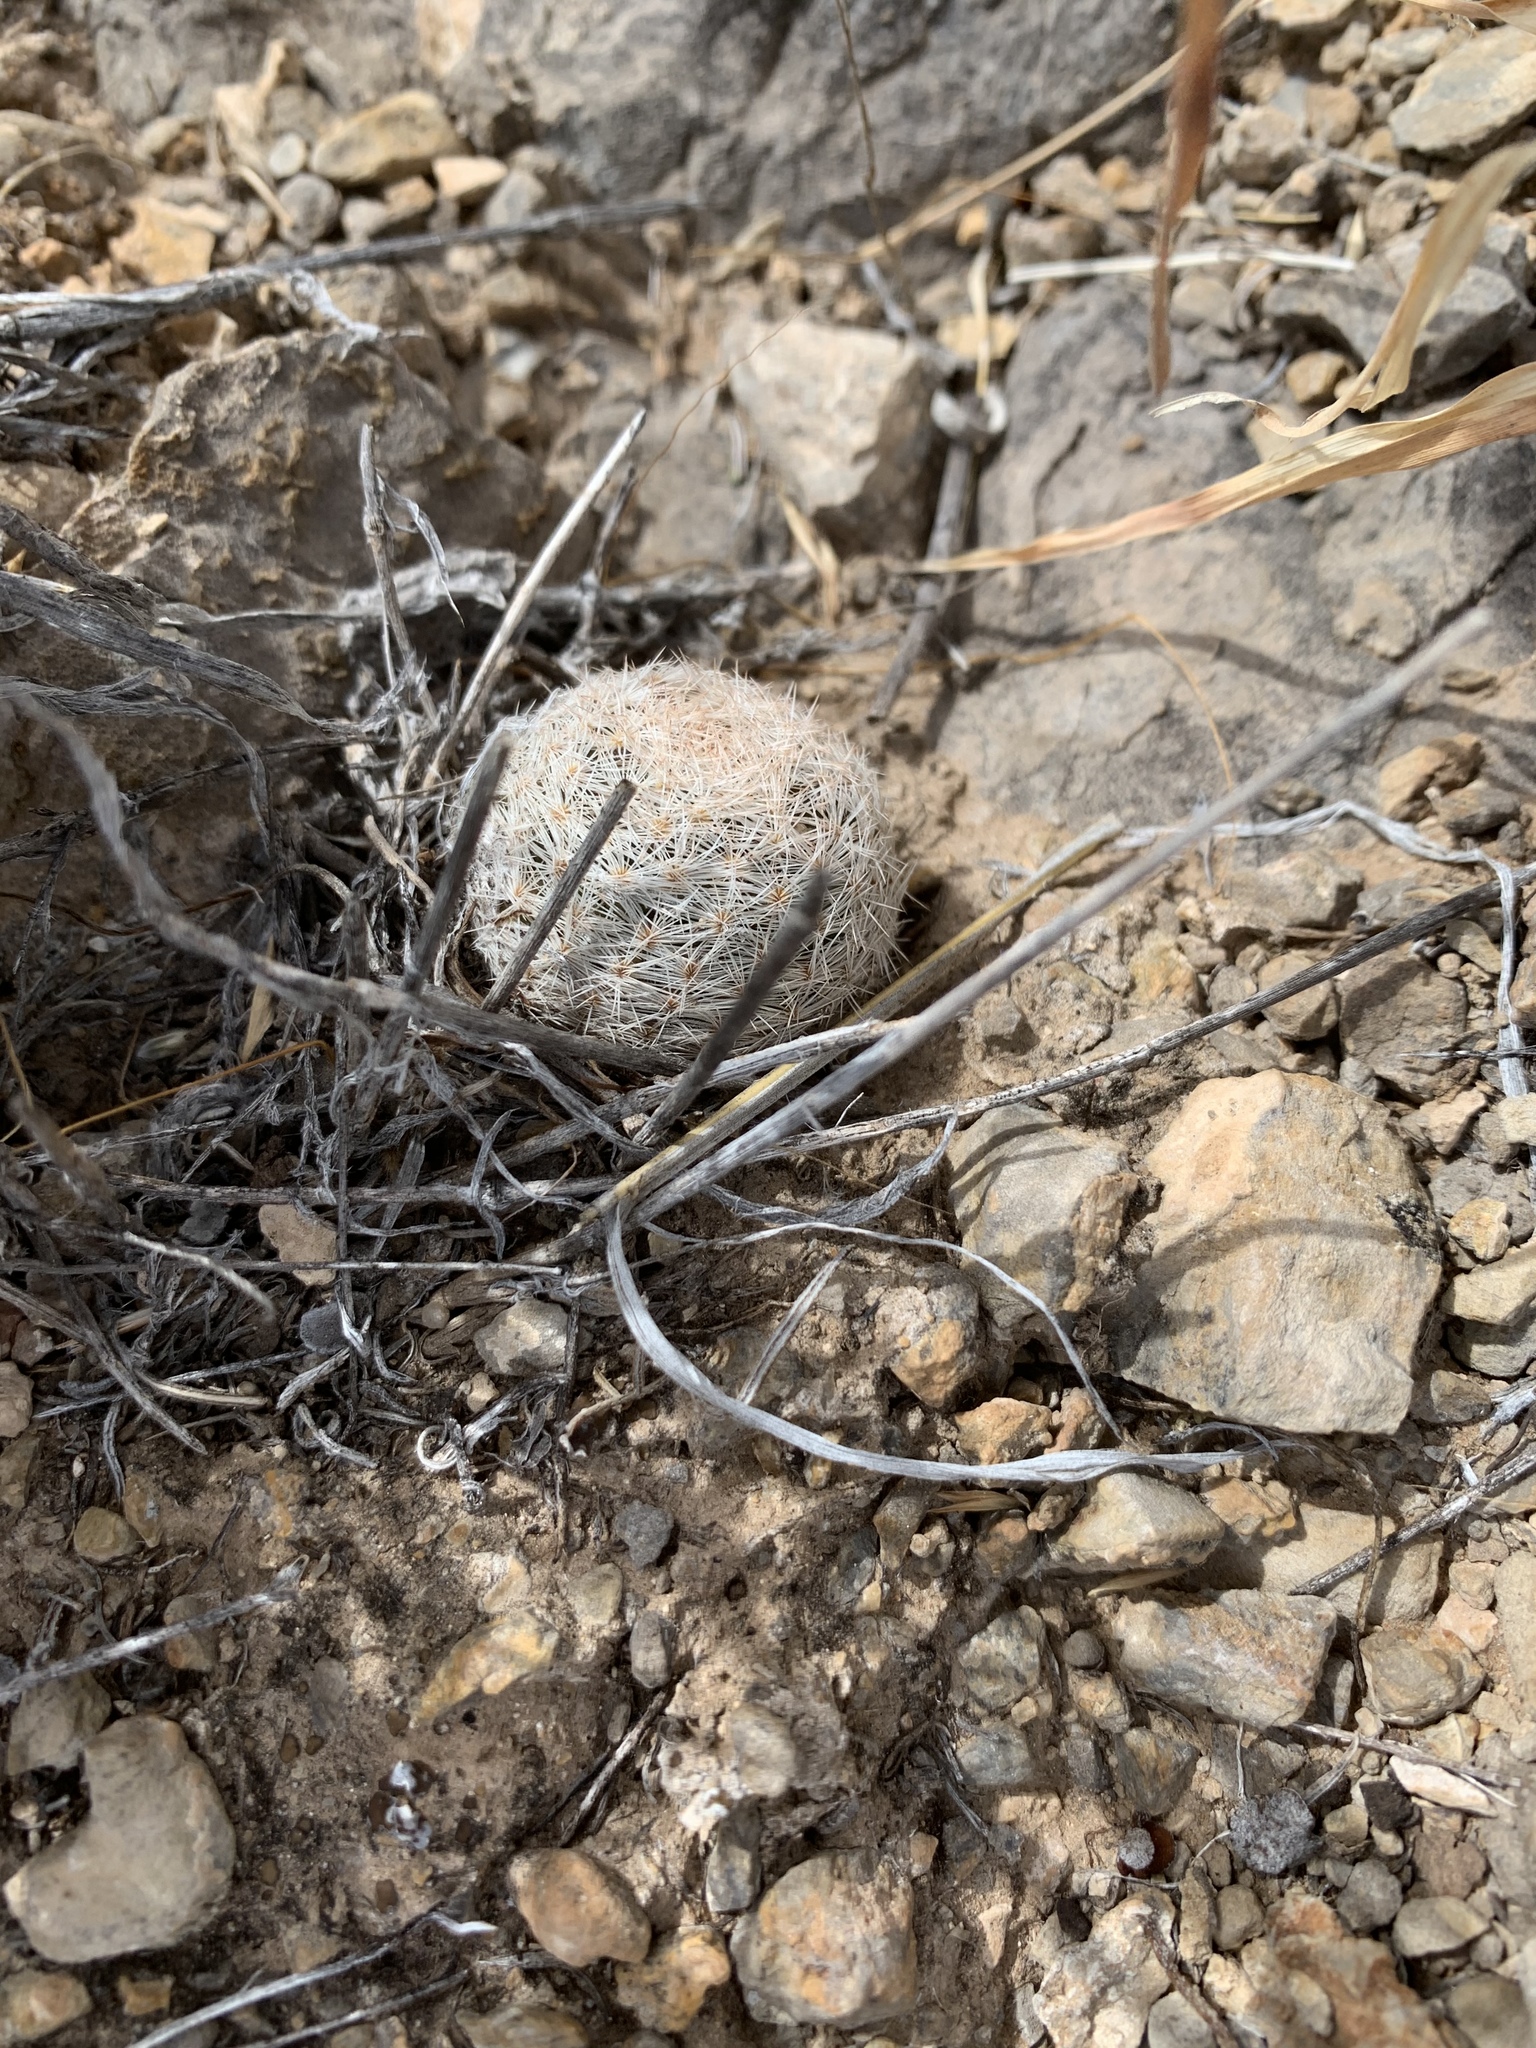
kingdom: Plantae
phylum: Tracheophyta
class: Magnoliopsida
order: Caryophyllales
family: Cactaceae
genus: Mammillaria
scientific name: Mammillaria lasiacantha
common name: Lace-spine nipple cactus
